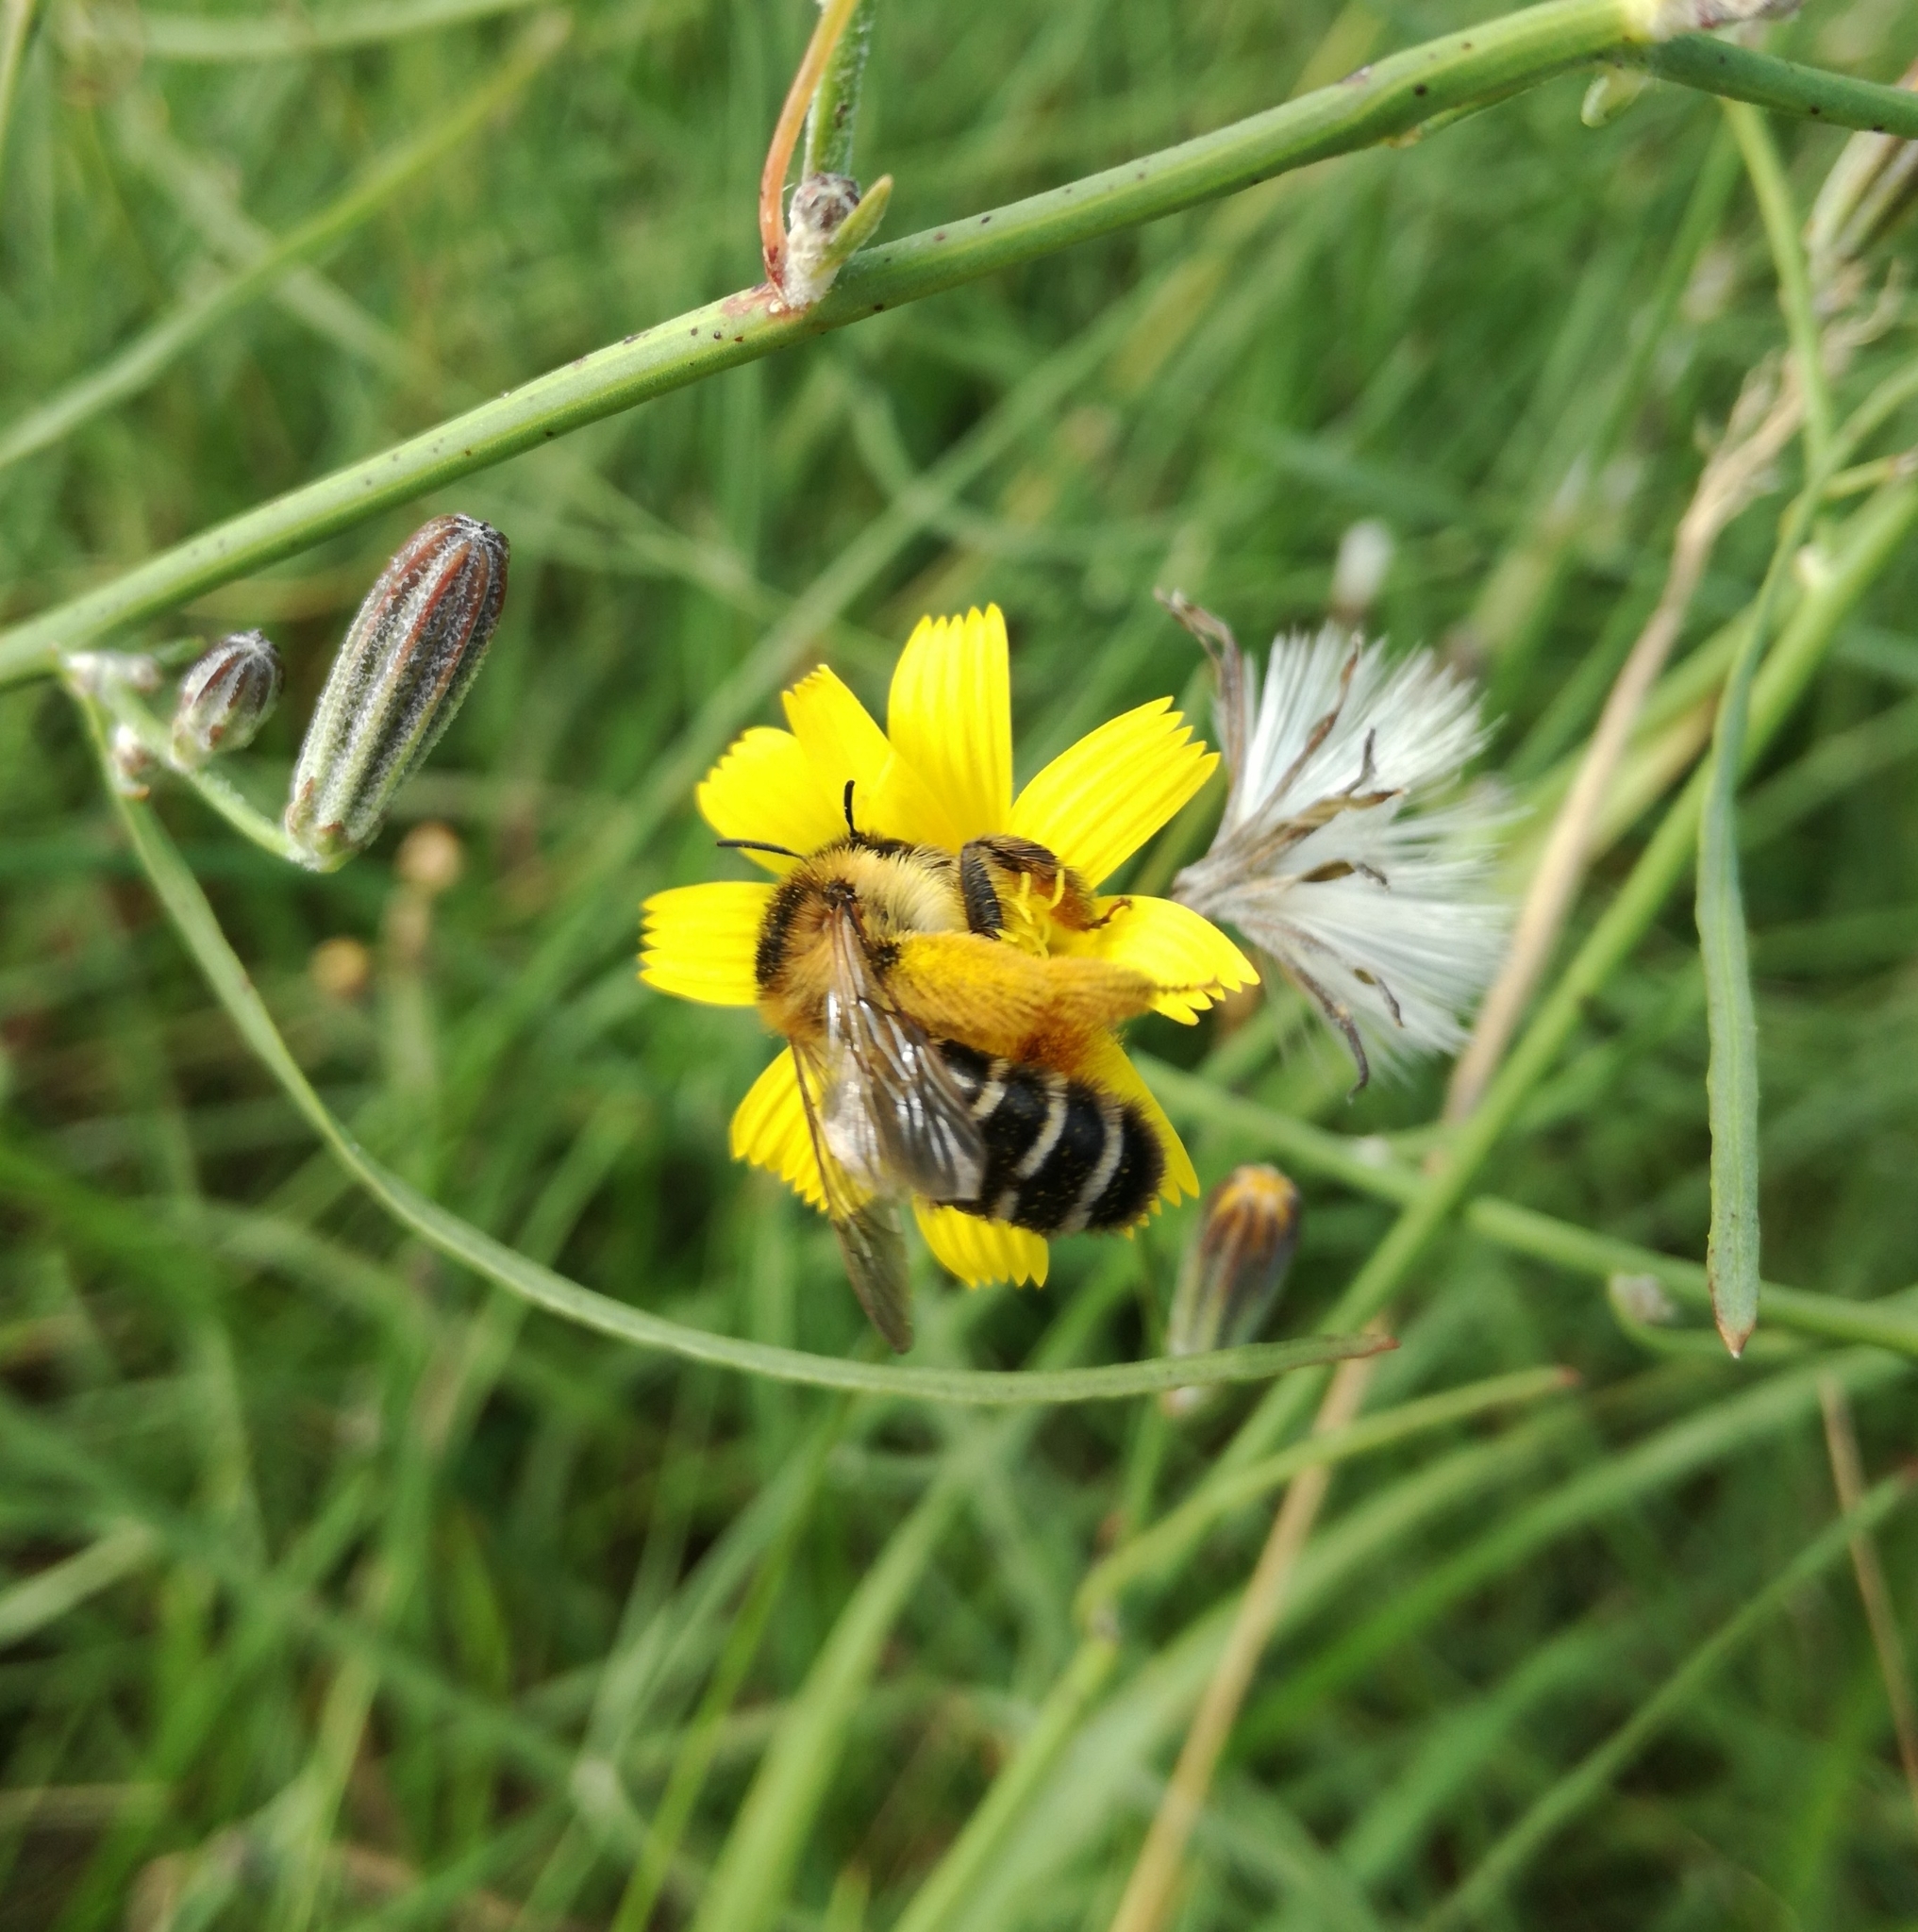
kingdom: Animalia
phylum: Arthropoda
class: Insecta
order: Hymenoptera
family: Melittidae
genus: Dasypoda
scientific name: Dasypoda hirtipes
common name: Pantaloon bee
